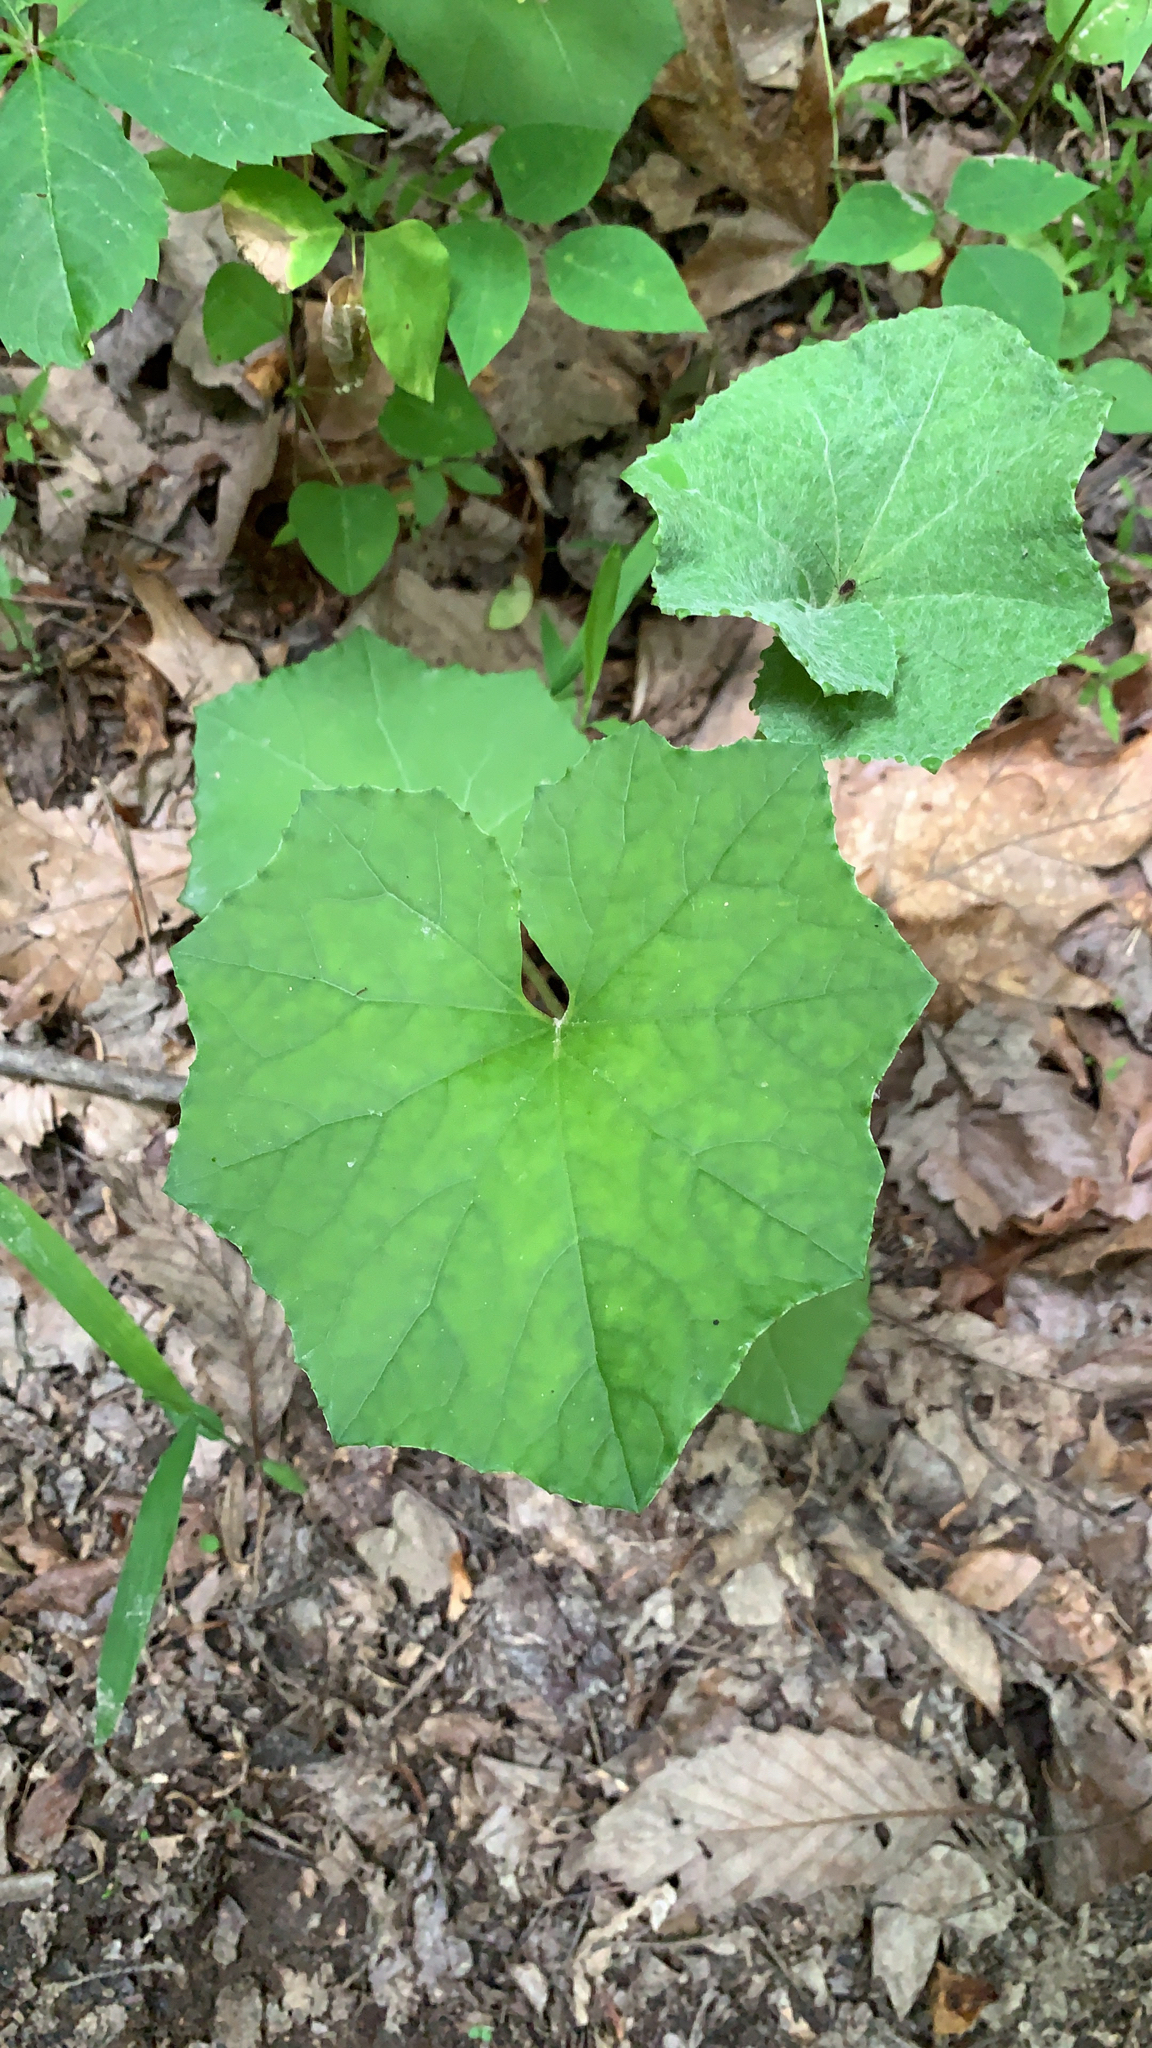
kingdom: Plantae
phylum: Tracheophyta
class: Magnoliopsida
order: Asterales
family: Asteraceae
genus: Tussilago
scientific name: Tussilago farfara
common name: Coltsfoot
